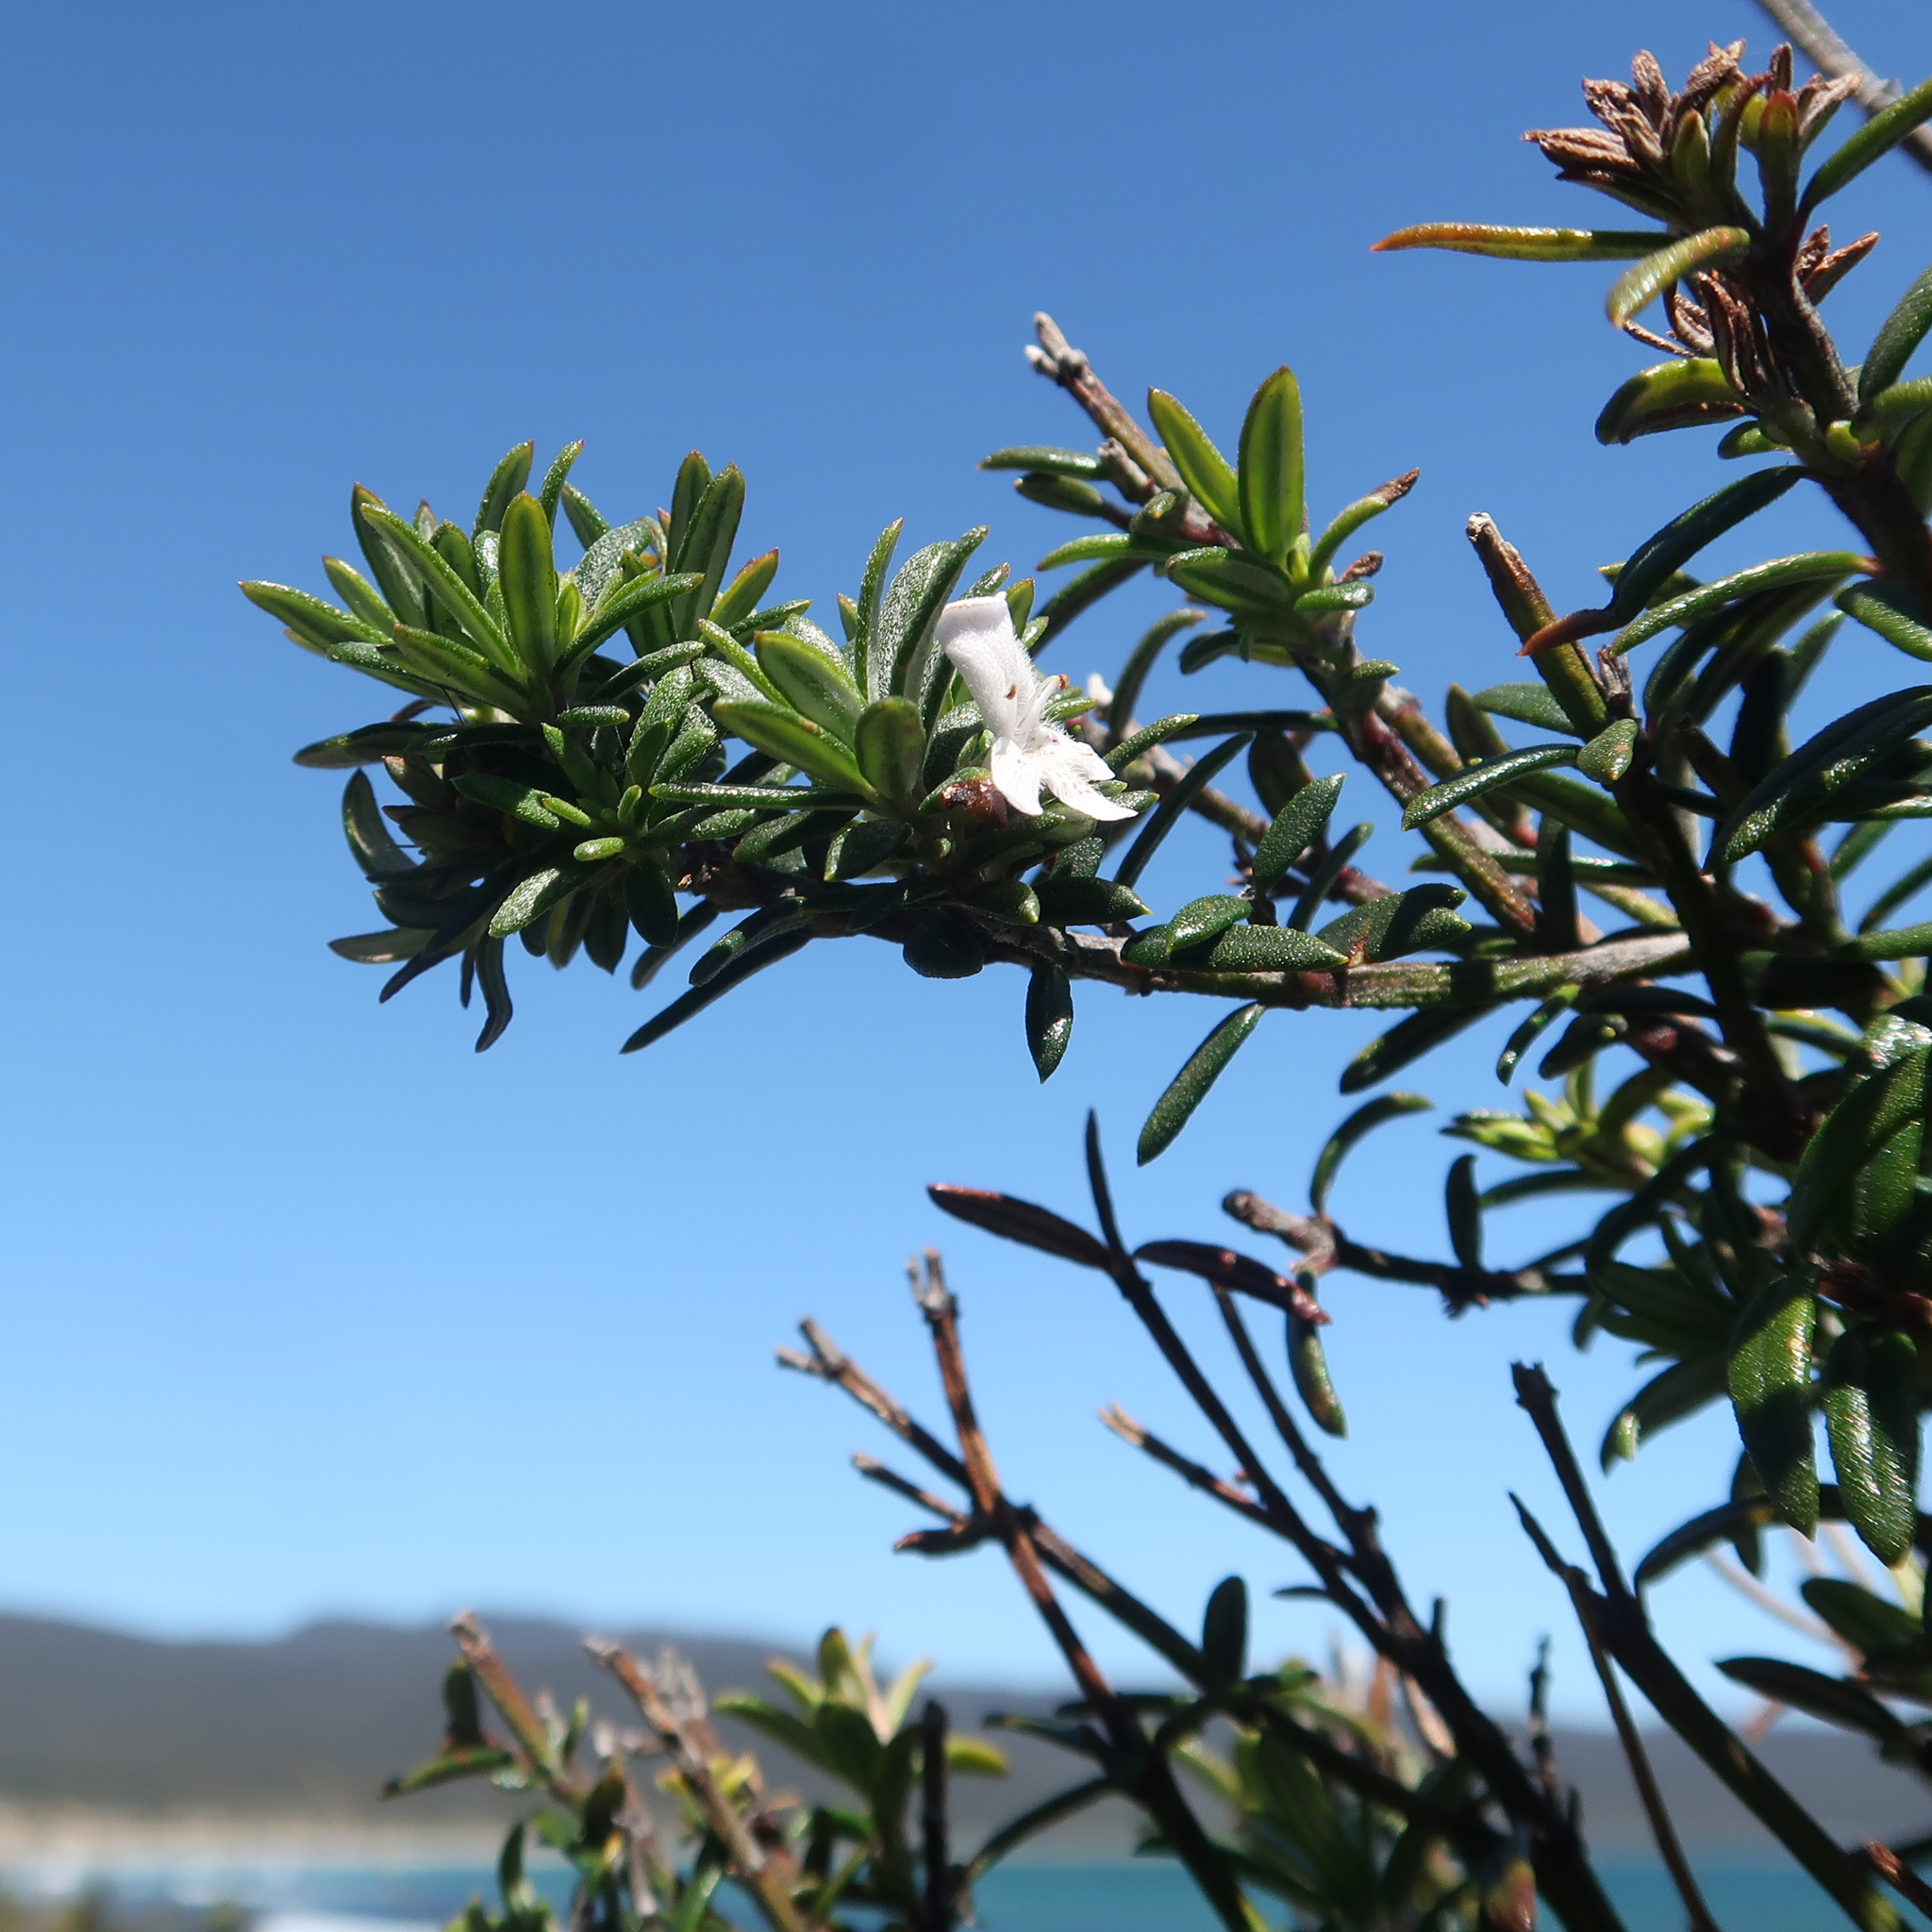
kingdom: Plantae
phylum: Tracheophyta
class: Magnoliopsida
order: Lamiales
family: Lamiaceae
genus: Westringia
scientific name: Westringia brevifolia
